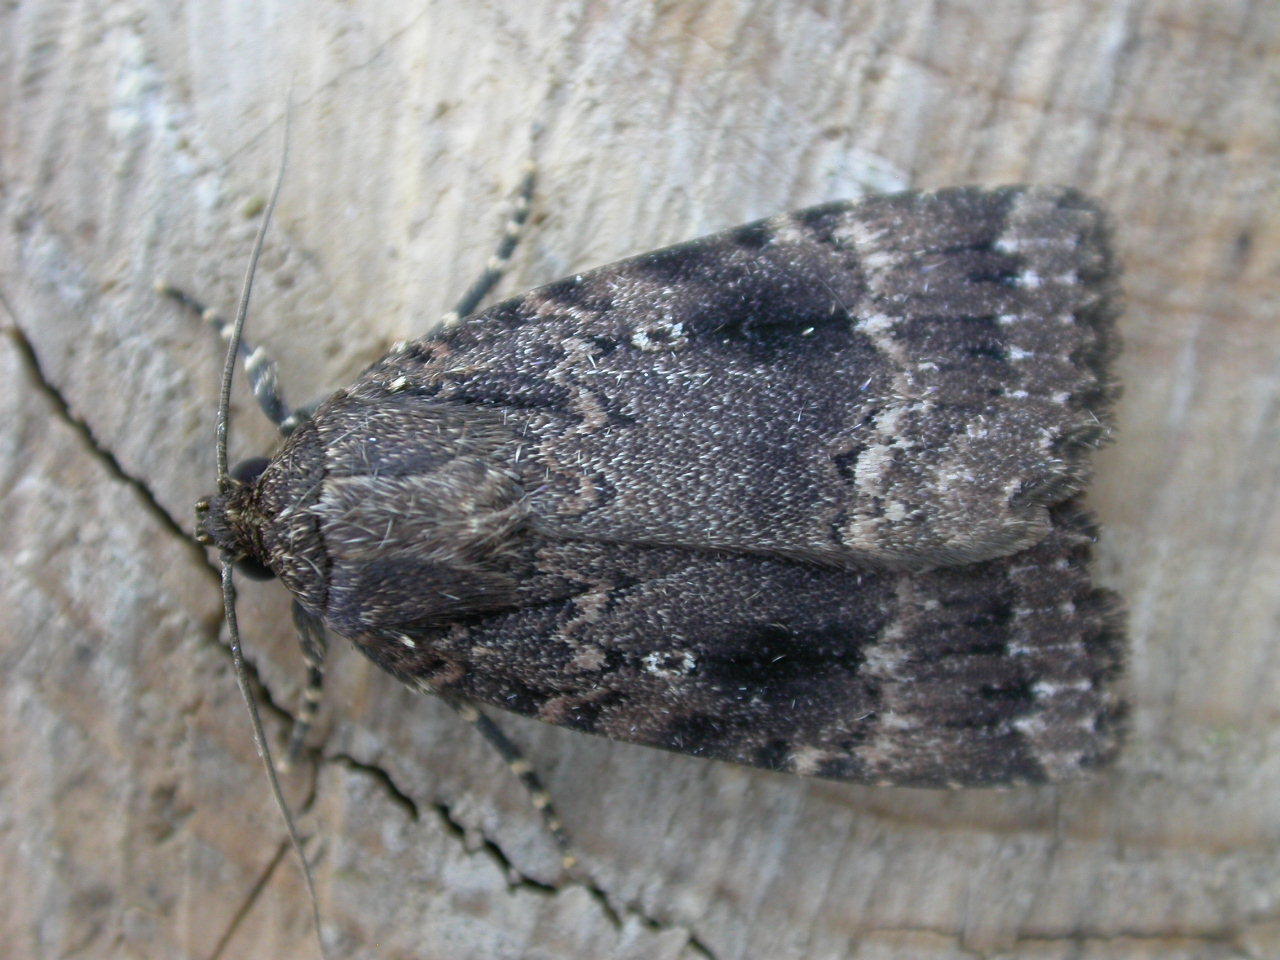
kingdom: Animalia
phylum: Arthropoda
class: Insecta
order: Lepidoptera
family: Noctuidae
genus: Amphipyra
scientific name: Amphipyra pyramidea
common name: Copper underwing
